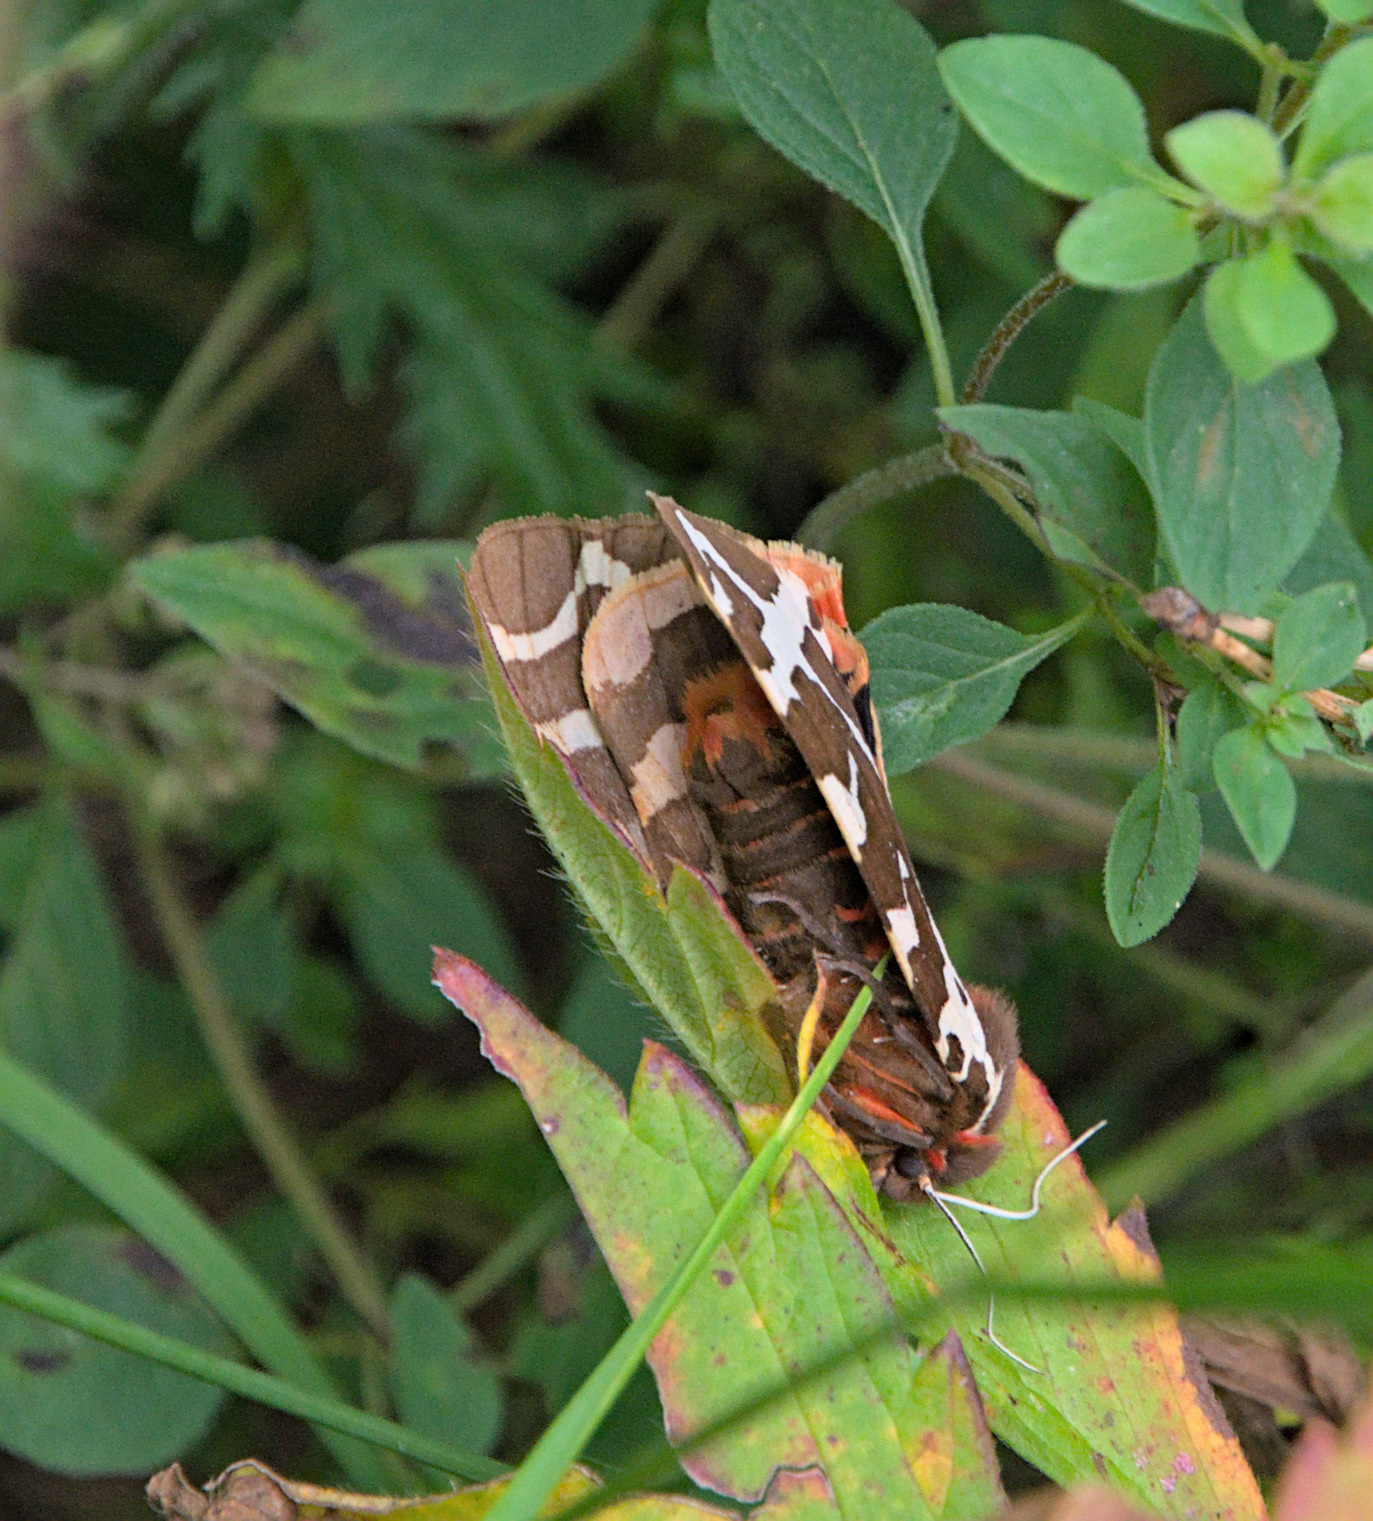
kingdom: Animalia
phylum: Arthropoda
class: Insecta
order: Lepidoptera
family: Erebidae
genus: Arctia
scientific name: Arctia caja
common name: Garden tiger
